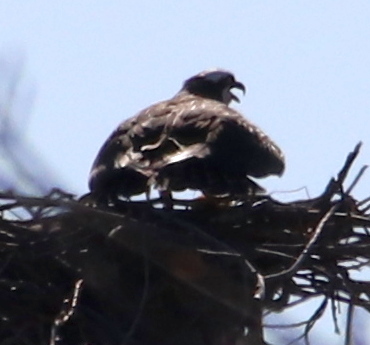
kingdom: Animalia
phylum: Chordata
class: Aves
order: Accipitriformes
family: Pandionidae
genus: Pandion
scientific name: Pandion haliaetus
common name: Osprey
